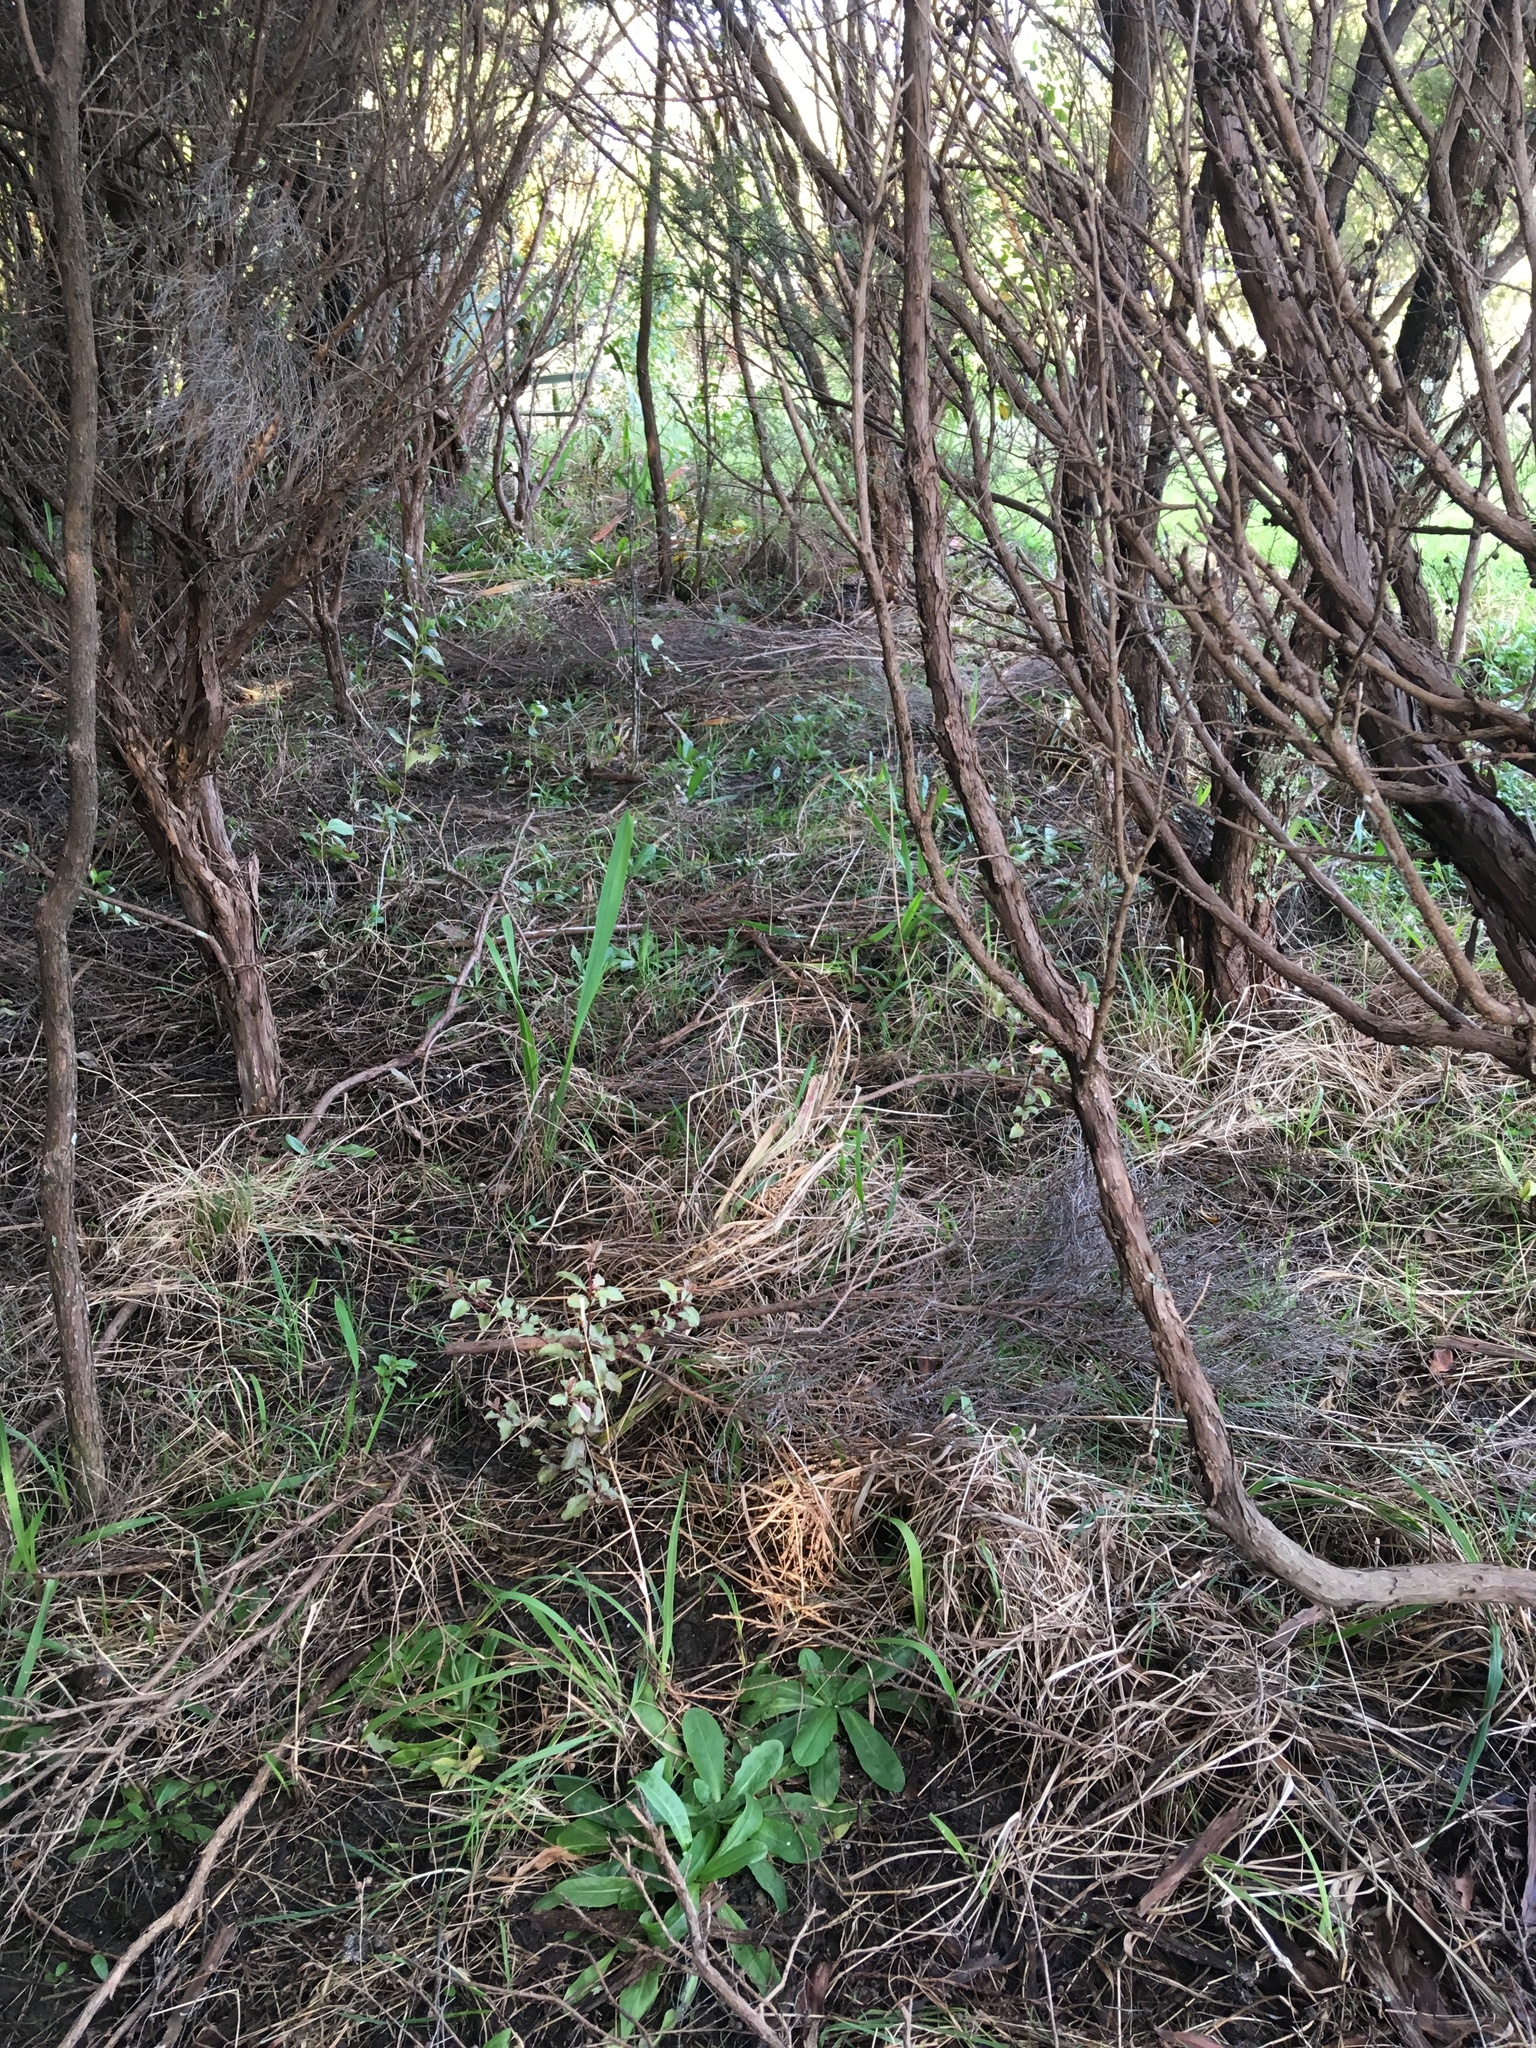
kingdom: Plantae
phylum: Tracheophyta
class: Magnoliopsida
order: Ericales
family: Primulaceae
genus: Myrsine
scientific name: Myrsine australis
